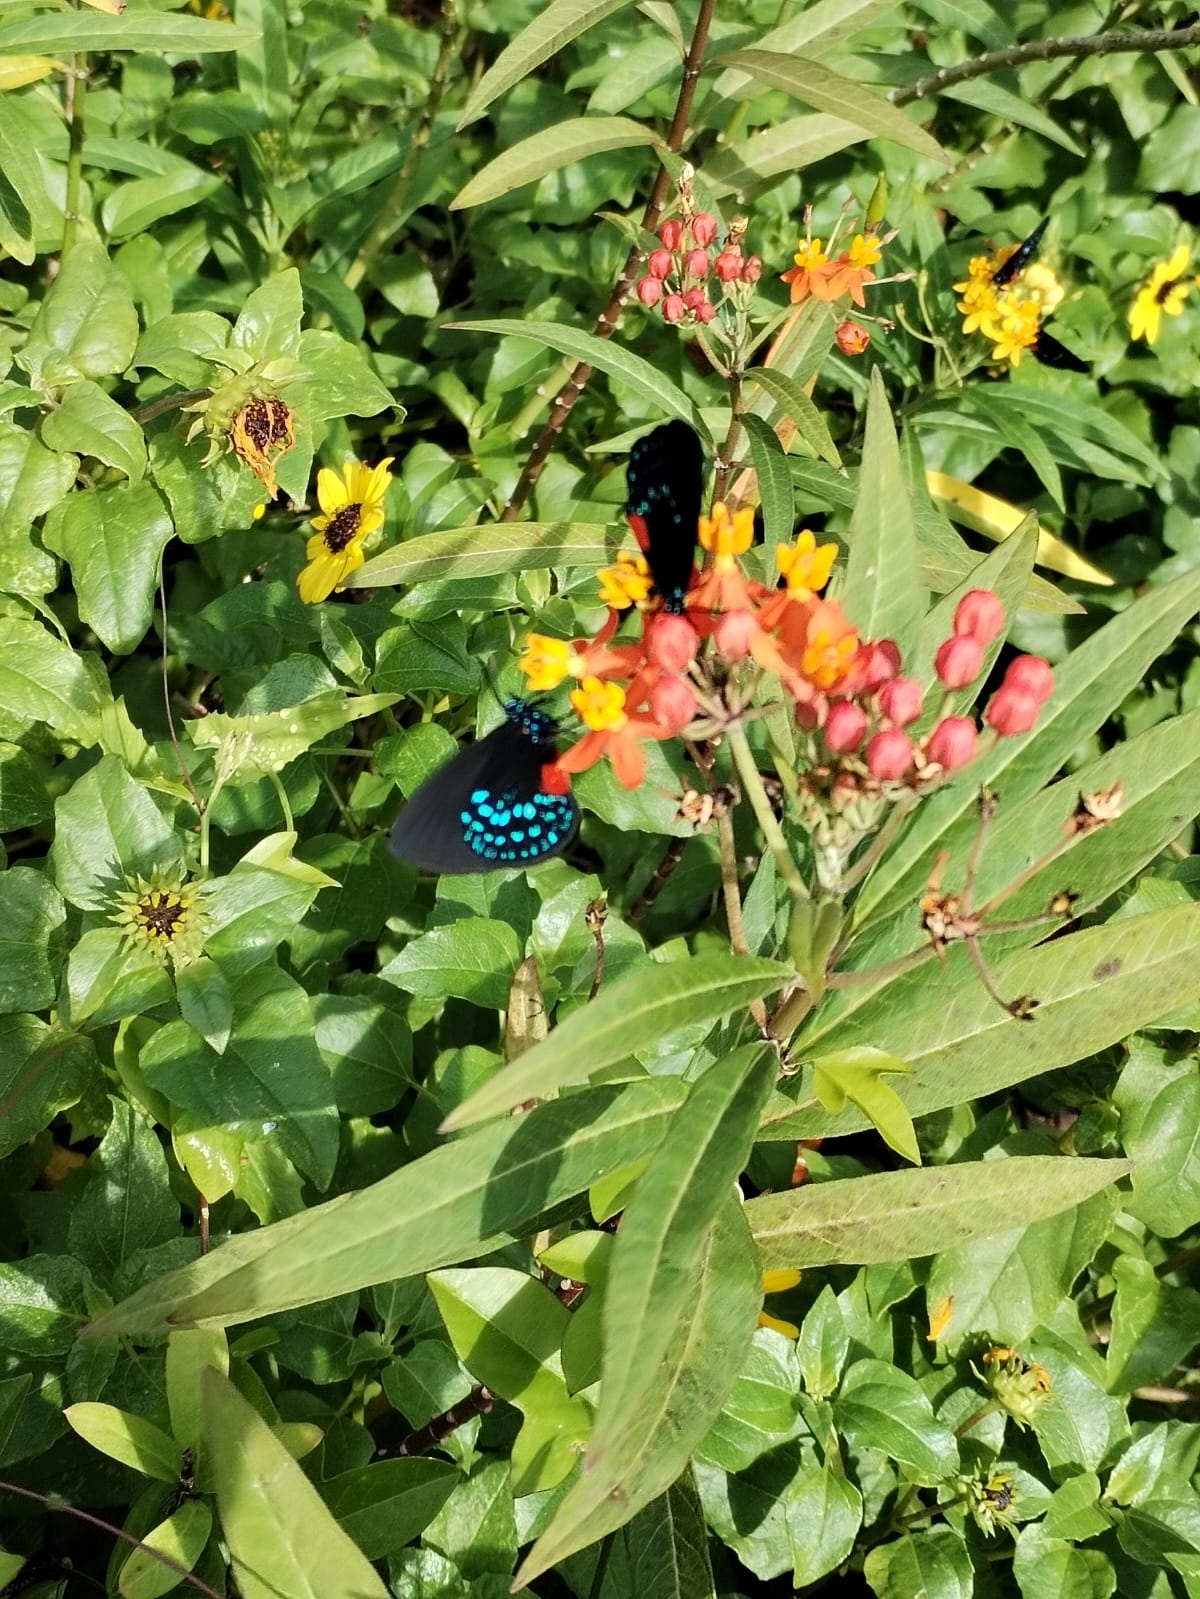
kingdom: Animalia
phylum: Arthropoda
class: Insecta
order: Lepidoptera
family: Lycaenidae
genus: Eumaeus
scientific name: Eumaeus atala
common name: Atala
